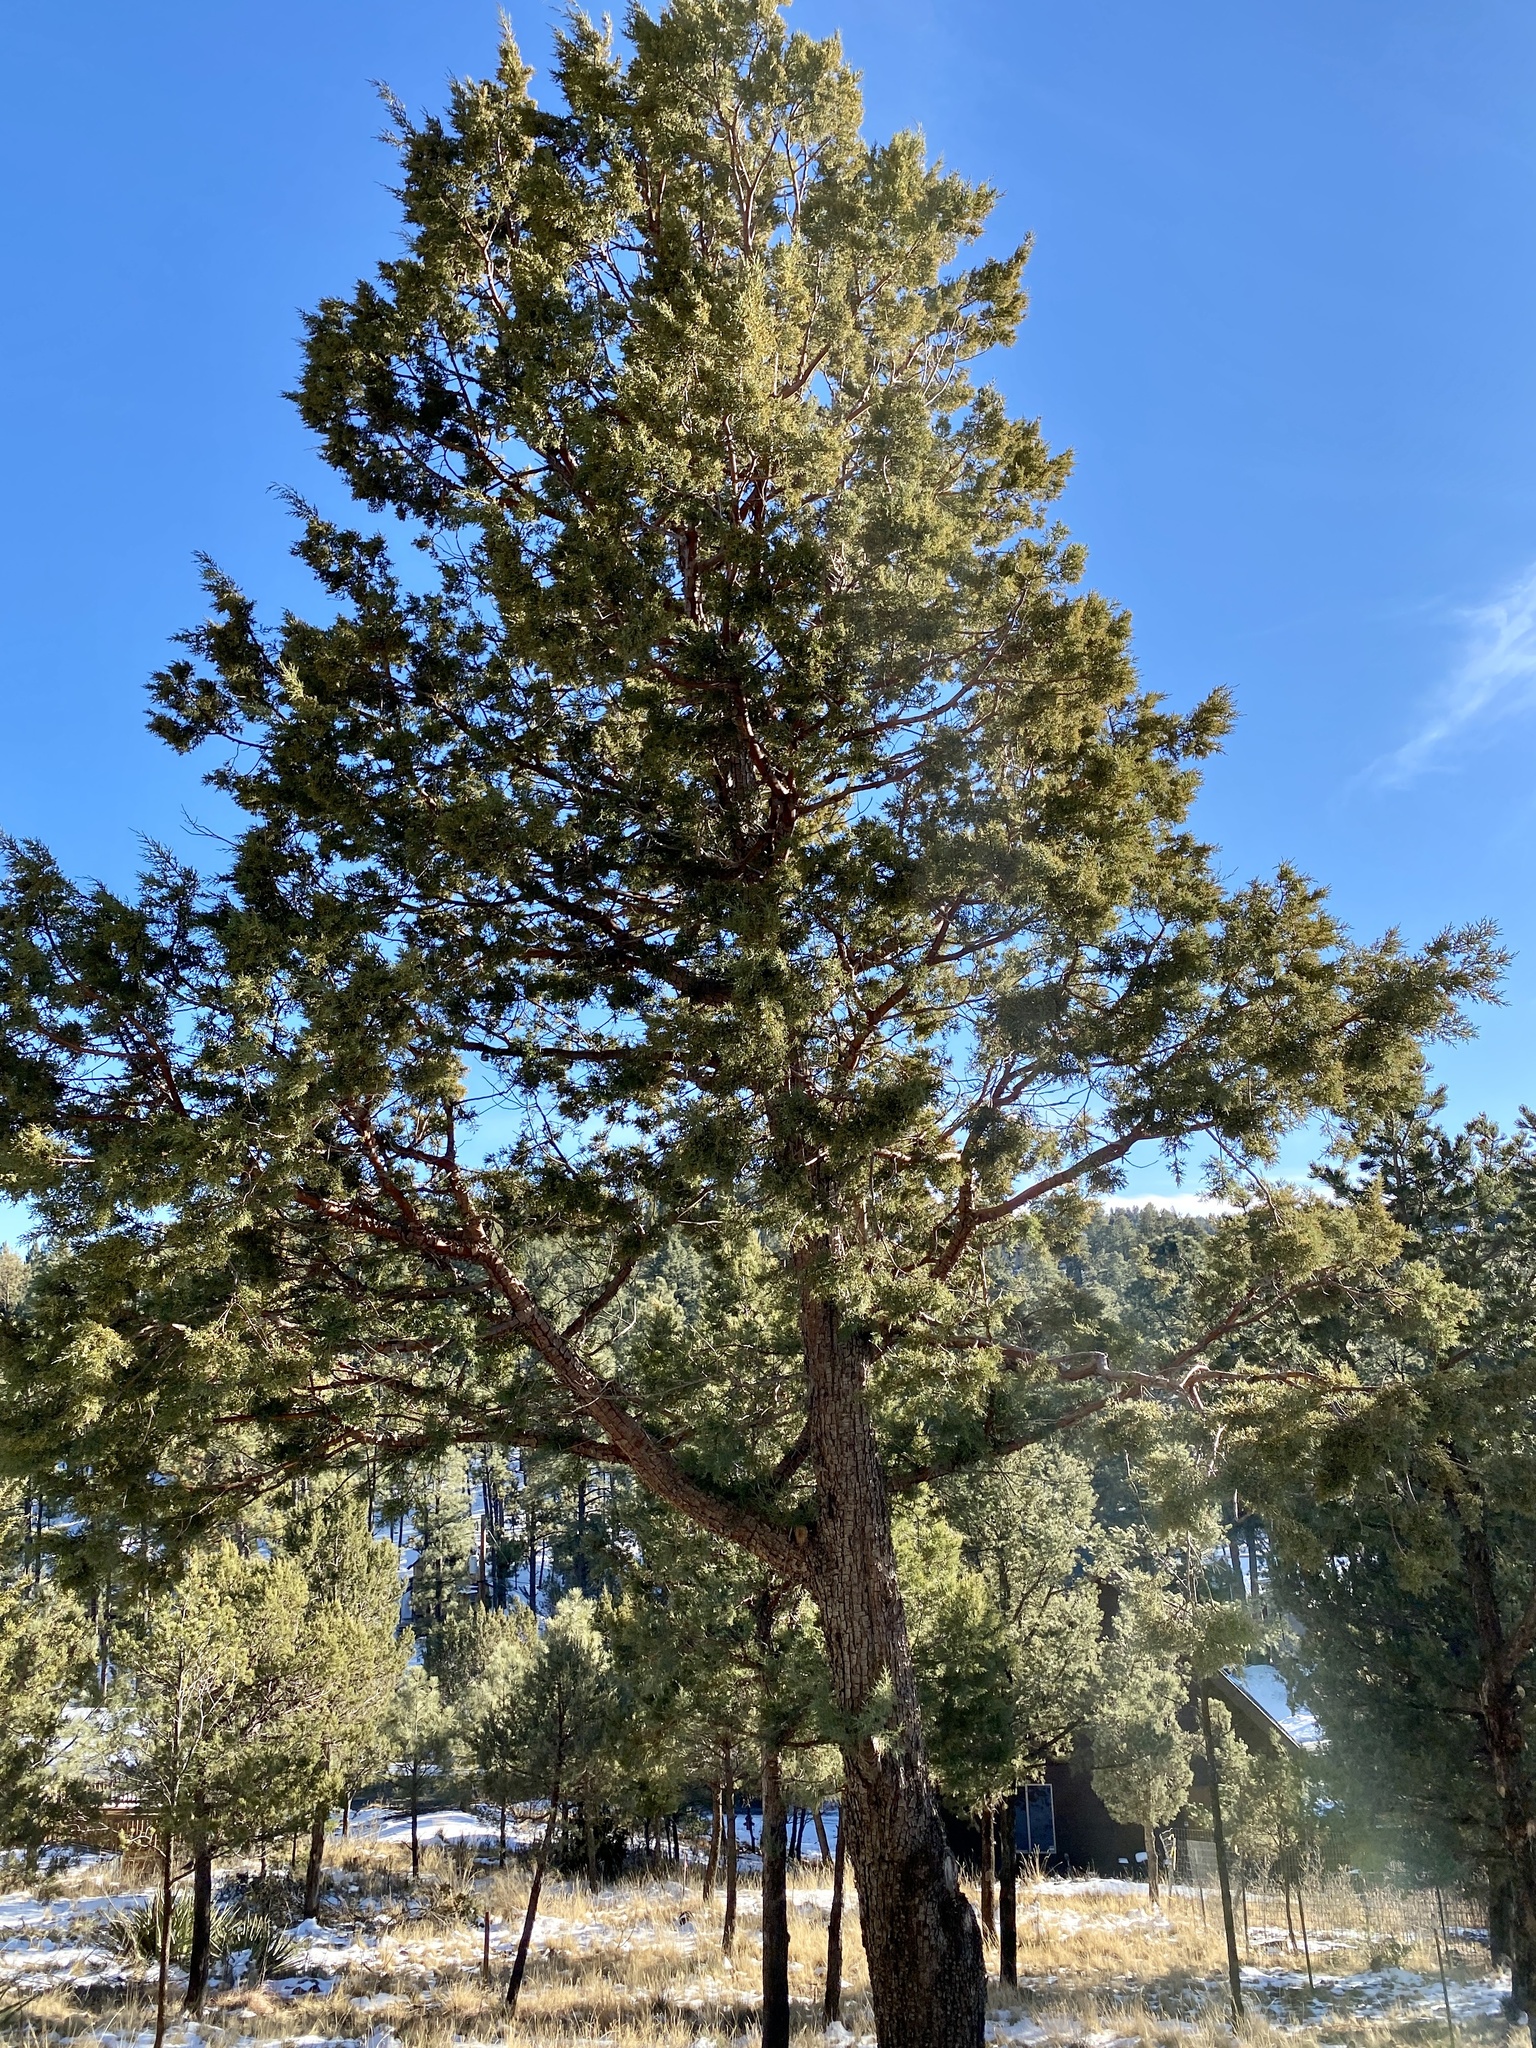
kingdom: Plantae
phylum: Tracheophyta
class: Pinopsida
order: Pinales
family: Cupressaceae
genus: Juniperus
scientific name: Juniperus deppeana
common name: Alligator juniper
